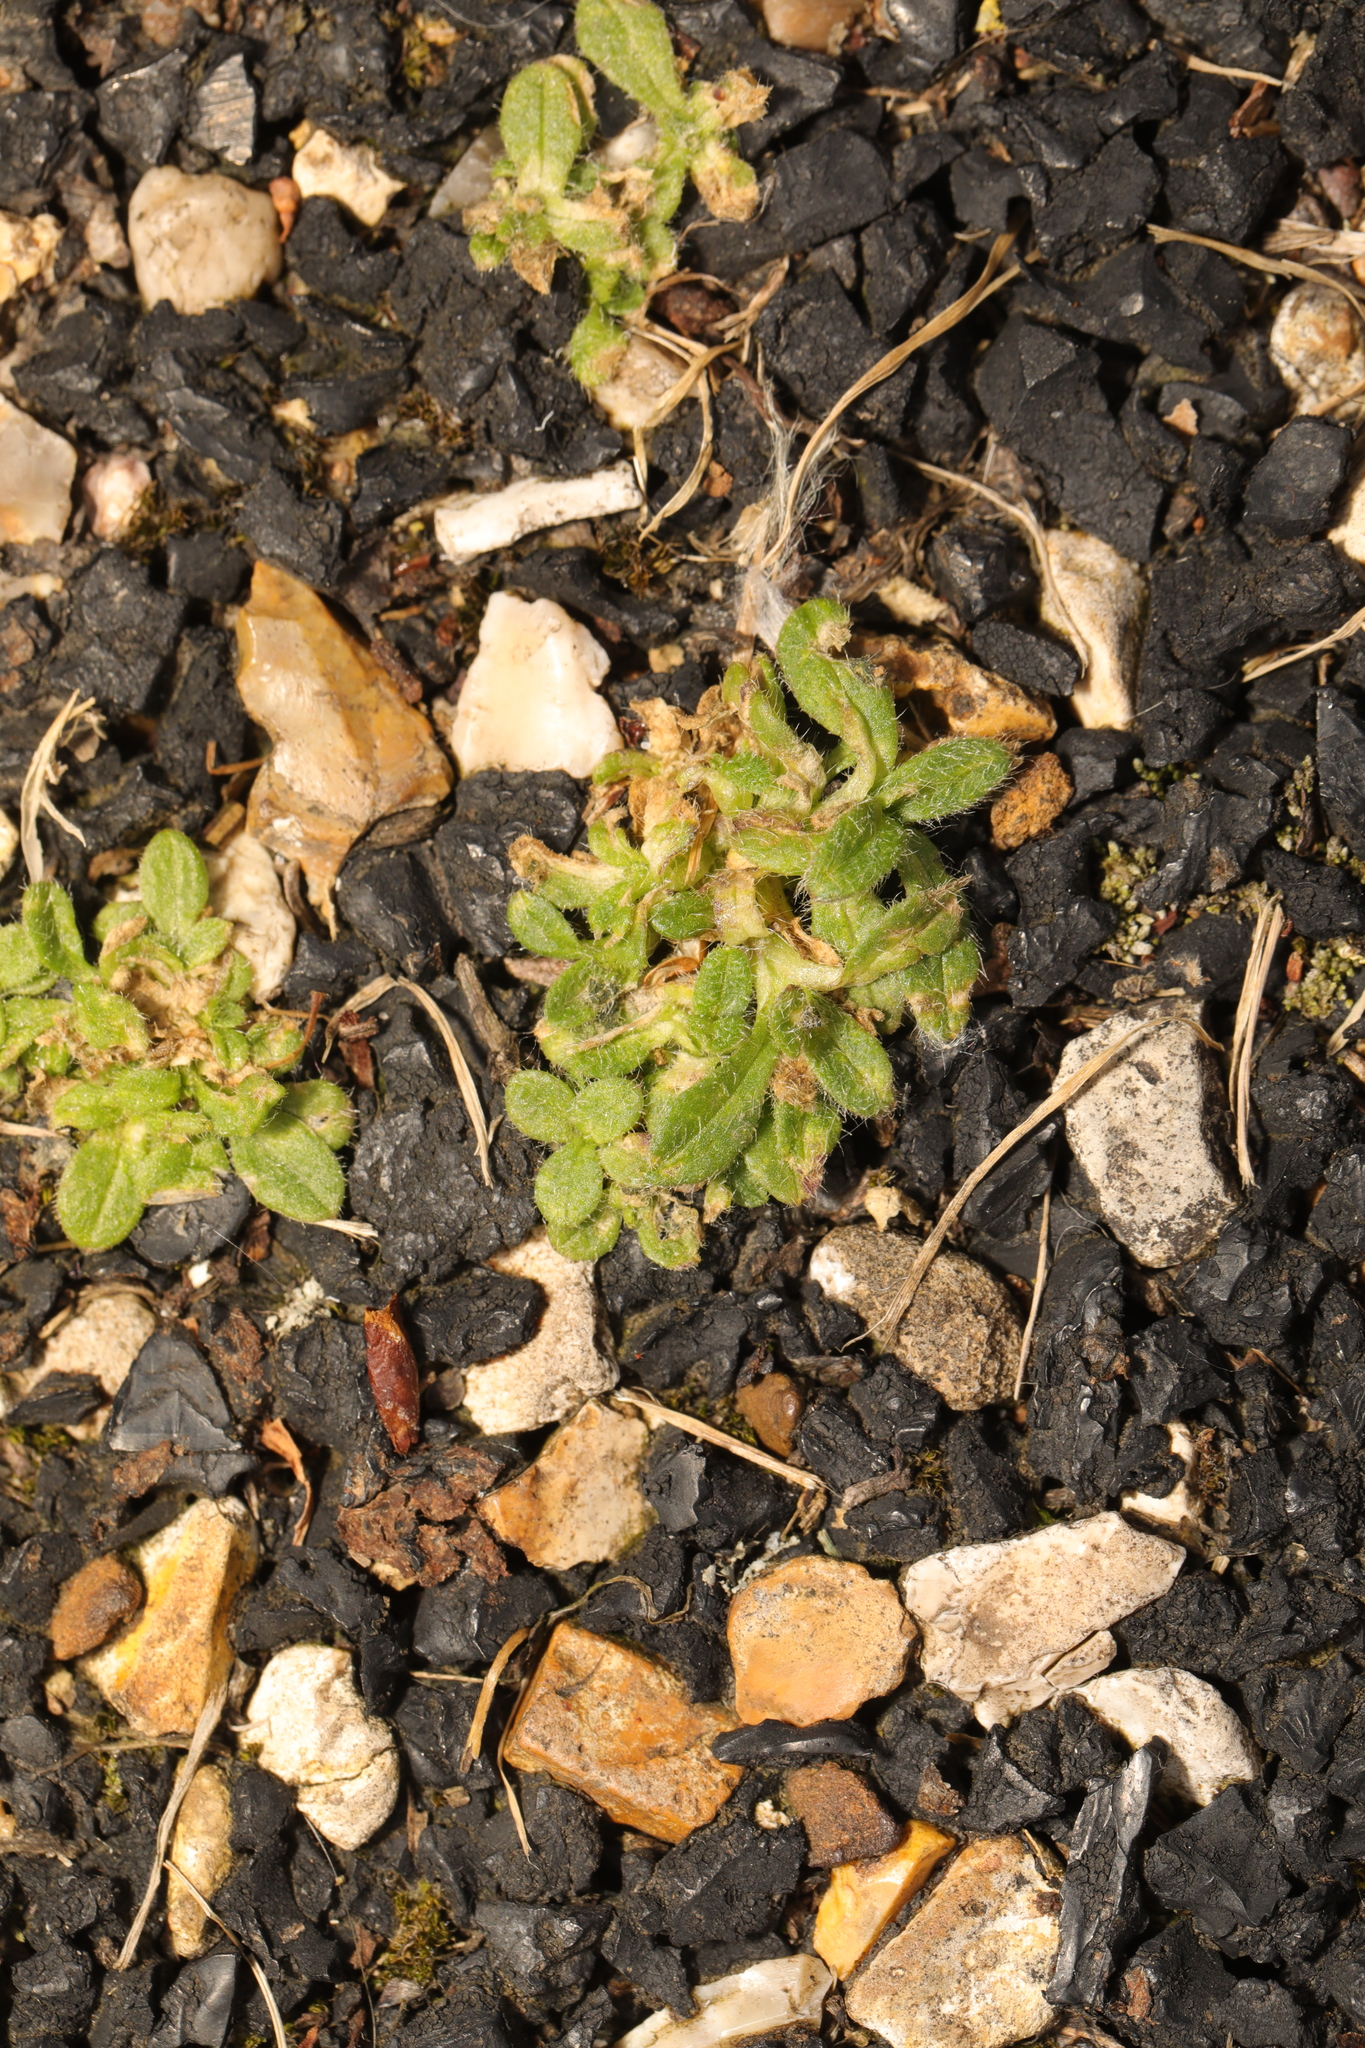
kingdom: Plantae
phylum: Tracheophyta
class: Magnoliopsida
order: Caryophyllales
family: Caryophyllaceae
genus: Cerastium
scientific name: Cerastium fontanum
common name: Common mouse-ear
